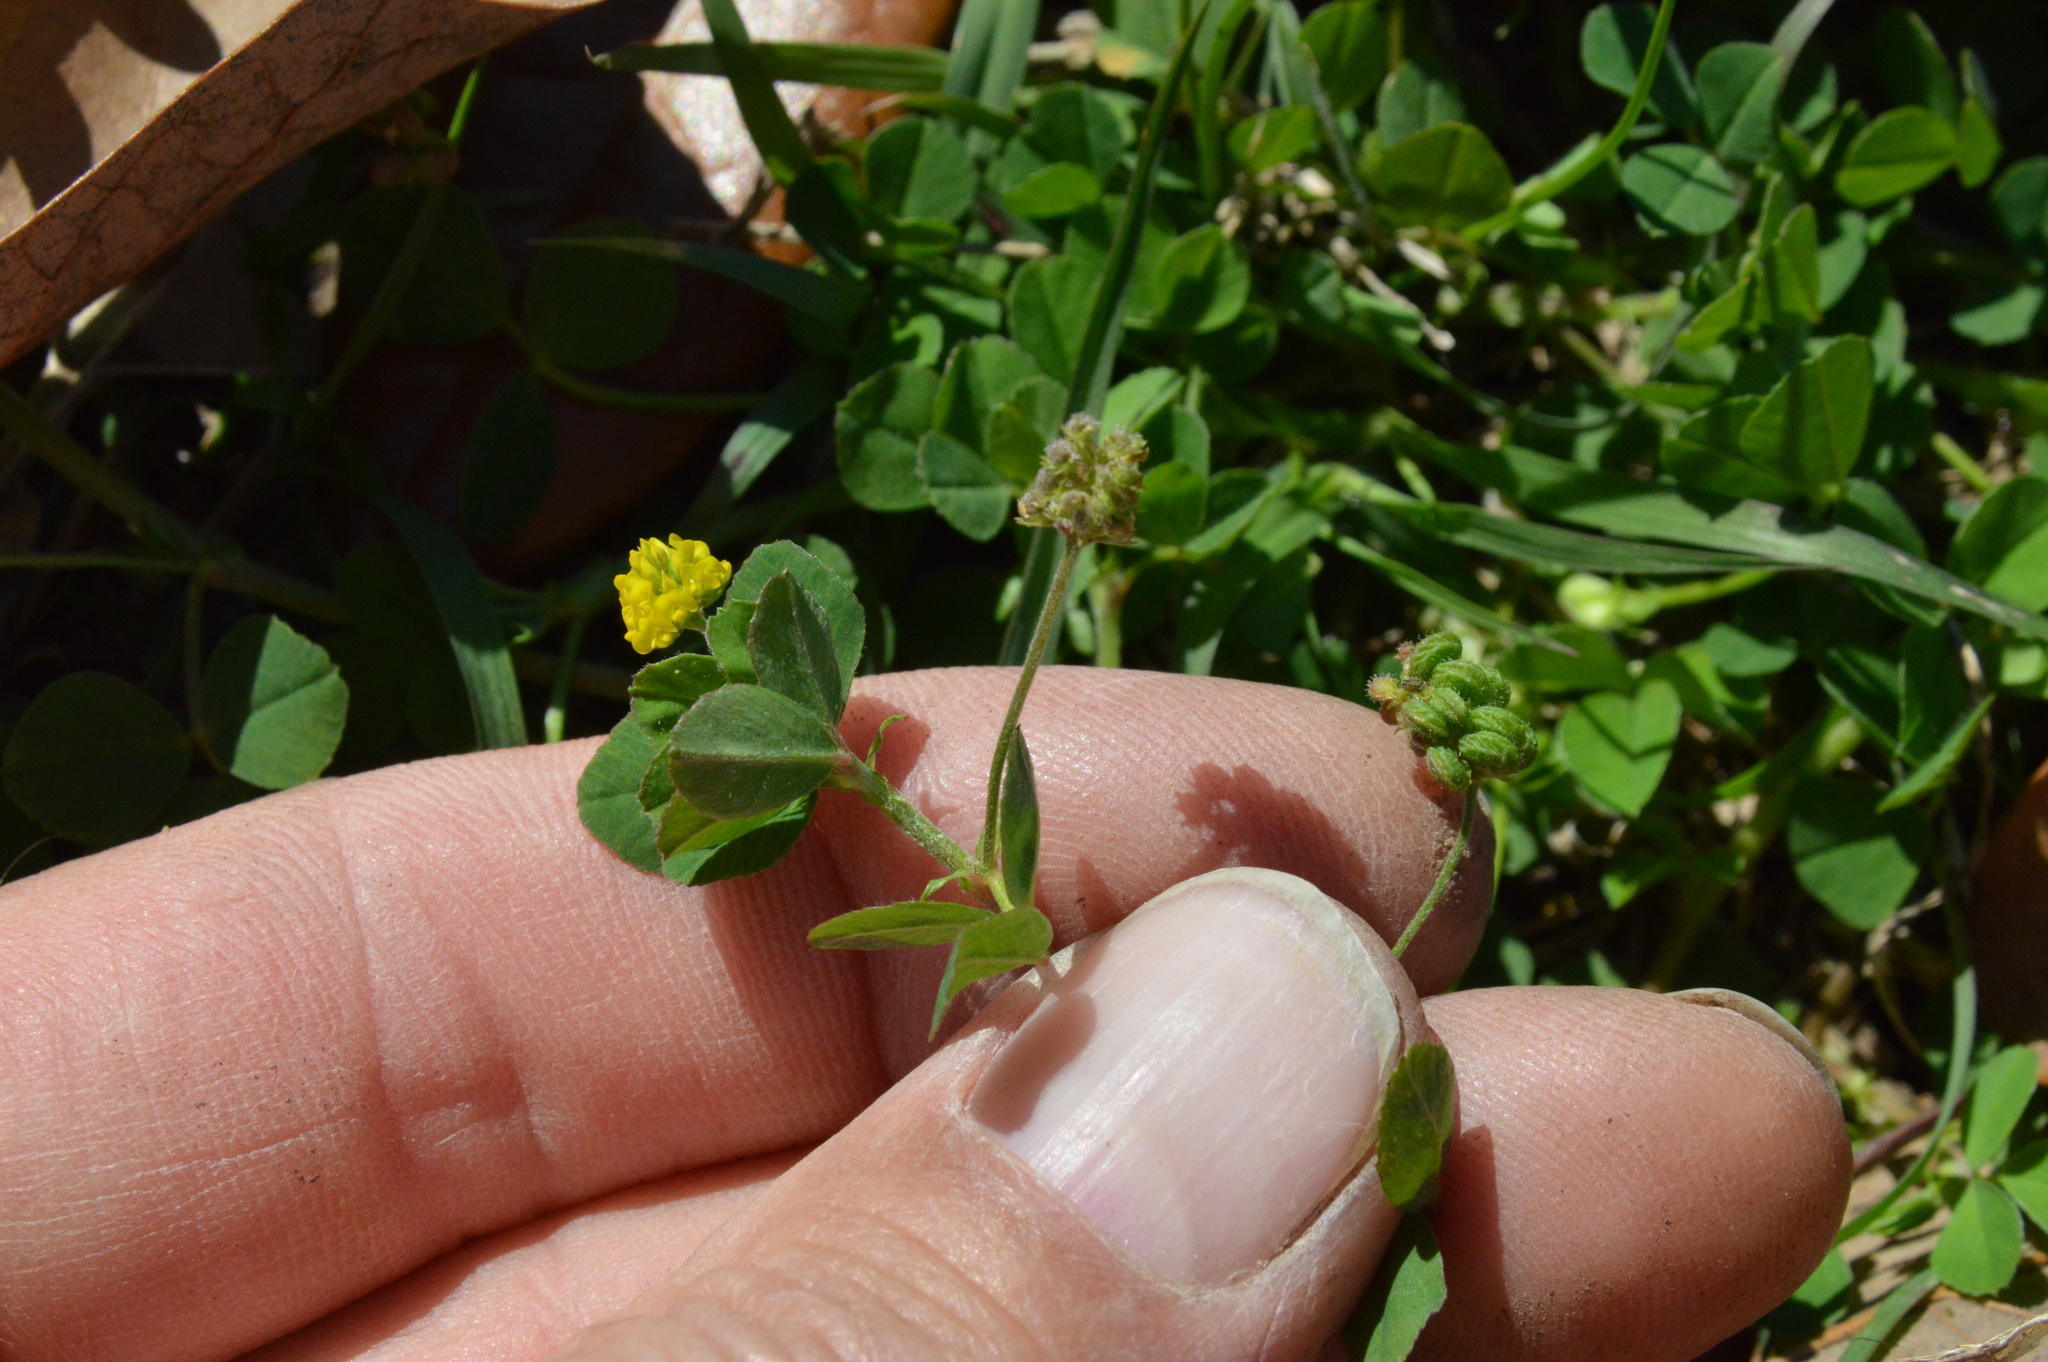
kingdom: Plantae
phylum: Tracheophyta
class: Magnoliopsida
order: Fabales
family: Fabaceae
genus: Medicago
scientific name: Medicago lupulina
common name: Black medick
